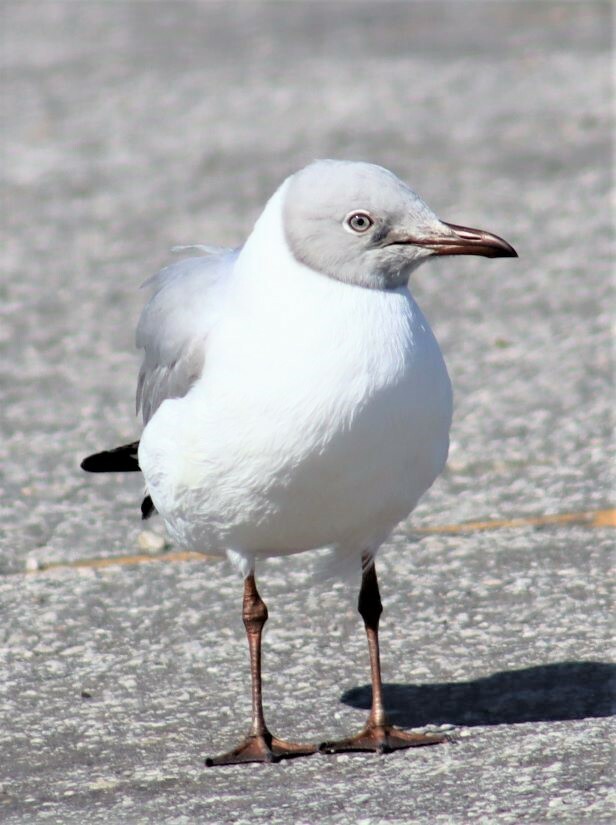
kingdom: Animalia
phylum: Chordata
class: Aves
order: Charadriiformes
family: Laridae
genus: Chroicocephalus
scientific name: Chroicocephalus cirrocephalus
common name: Grey-headed gull
